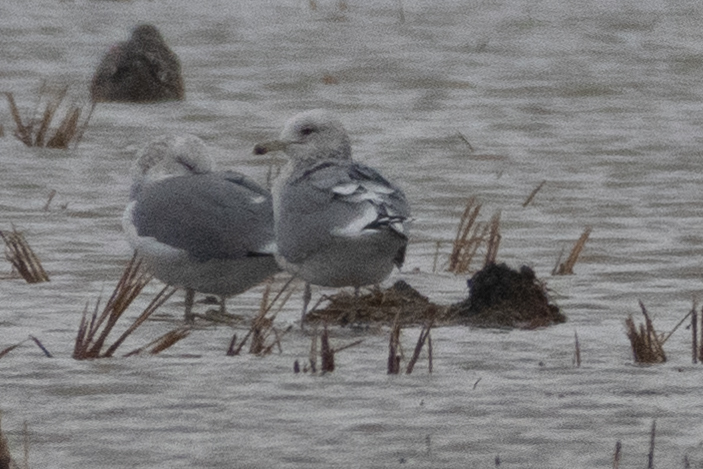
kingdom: Animalia
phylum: Chordata
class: Aves
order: Charadriiformes
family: Laridae
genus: Larus
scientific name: Larus californicus
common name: California gull
